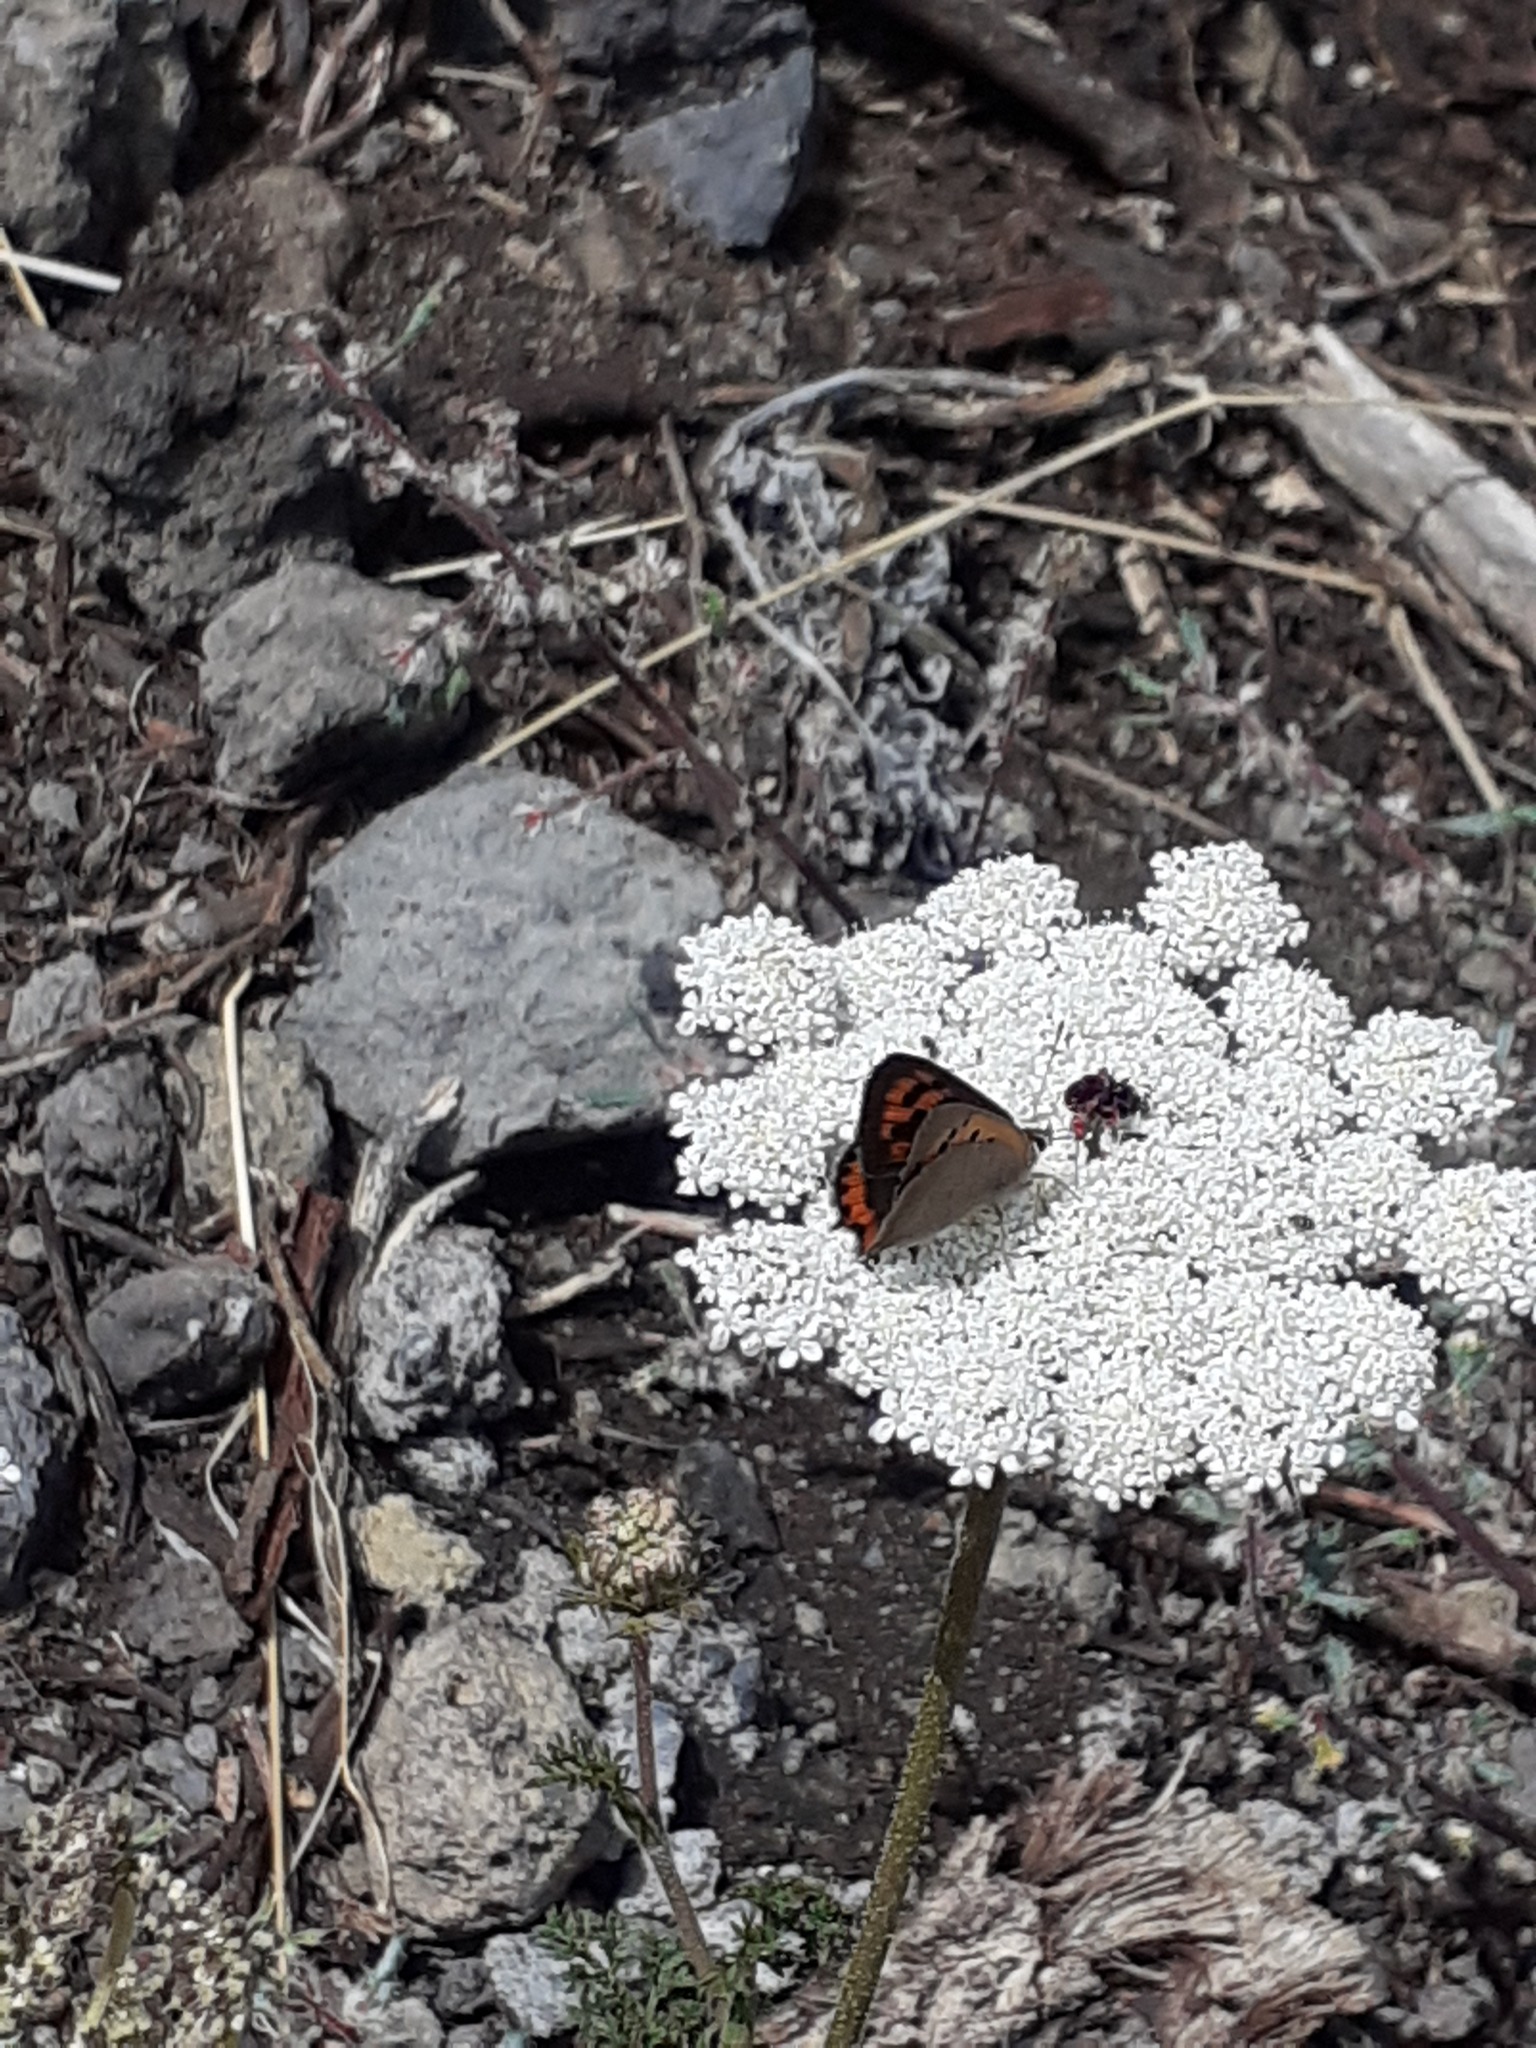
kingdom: Animalia
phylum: Arthropoda
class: Insecta
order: Lepidoptera
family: Lycaenidae
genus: Lycaena
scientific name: Lycaena phlaeas
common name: Small copper
